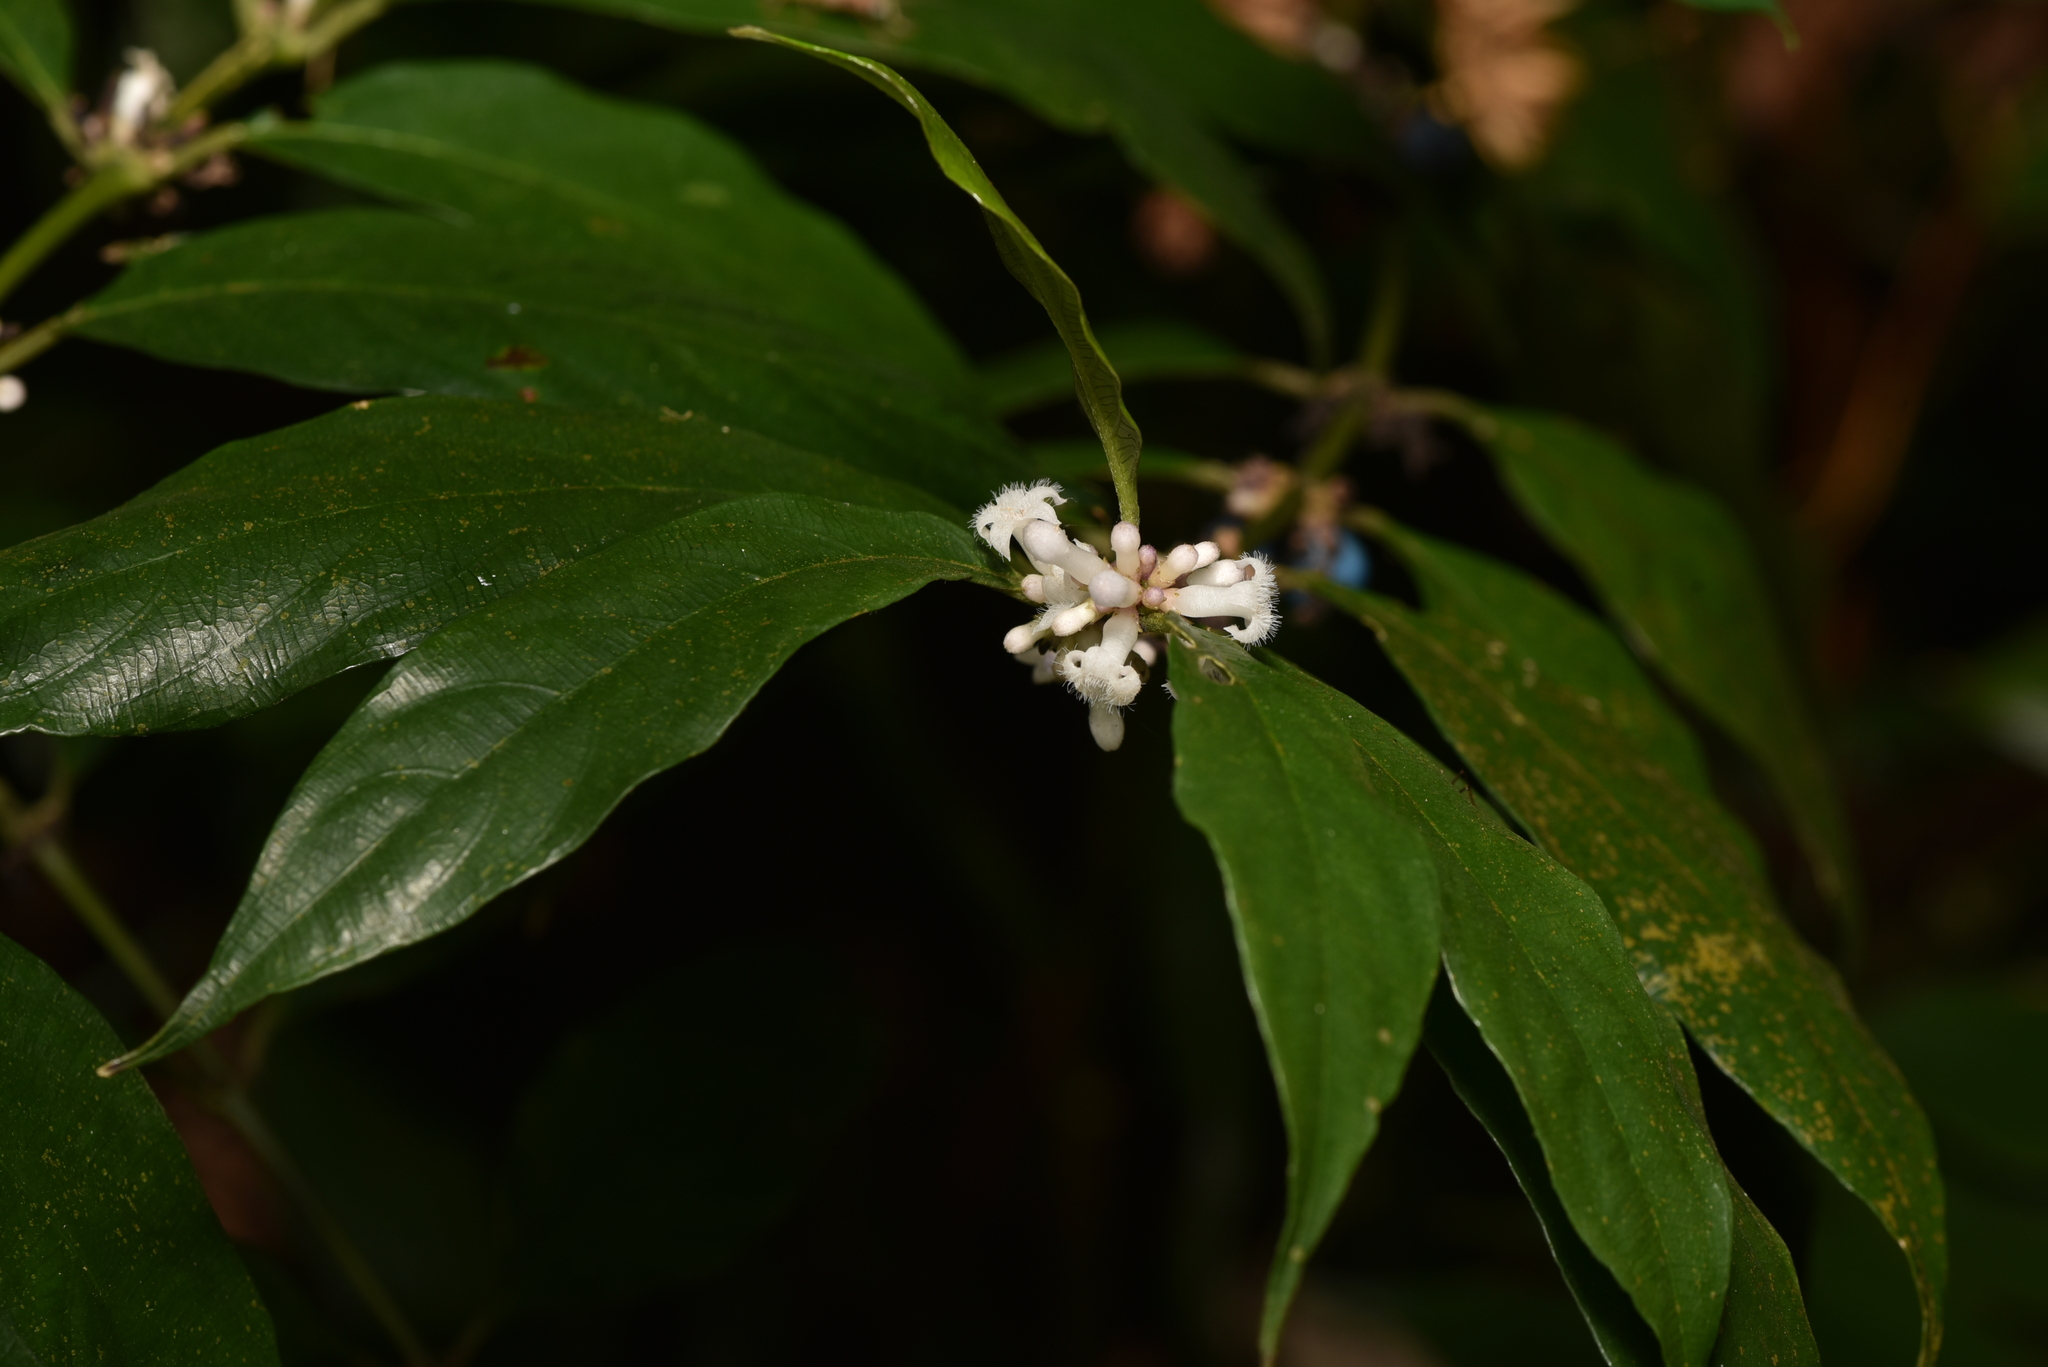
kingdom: Plantae
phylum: Tracheophyta
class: Magnoliopsida
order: Gentianales
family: Rubiaceae
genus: Lasianthus
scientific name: Lasianthus fordii
